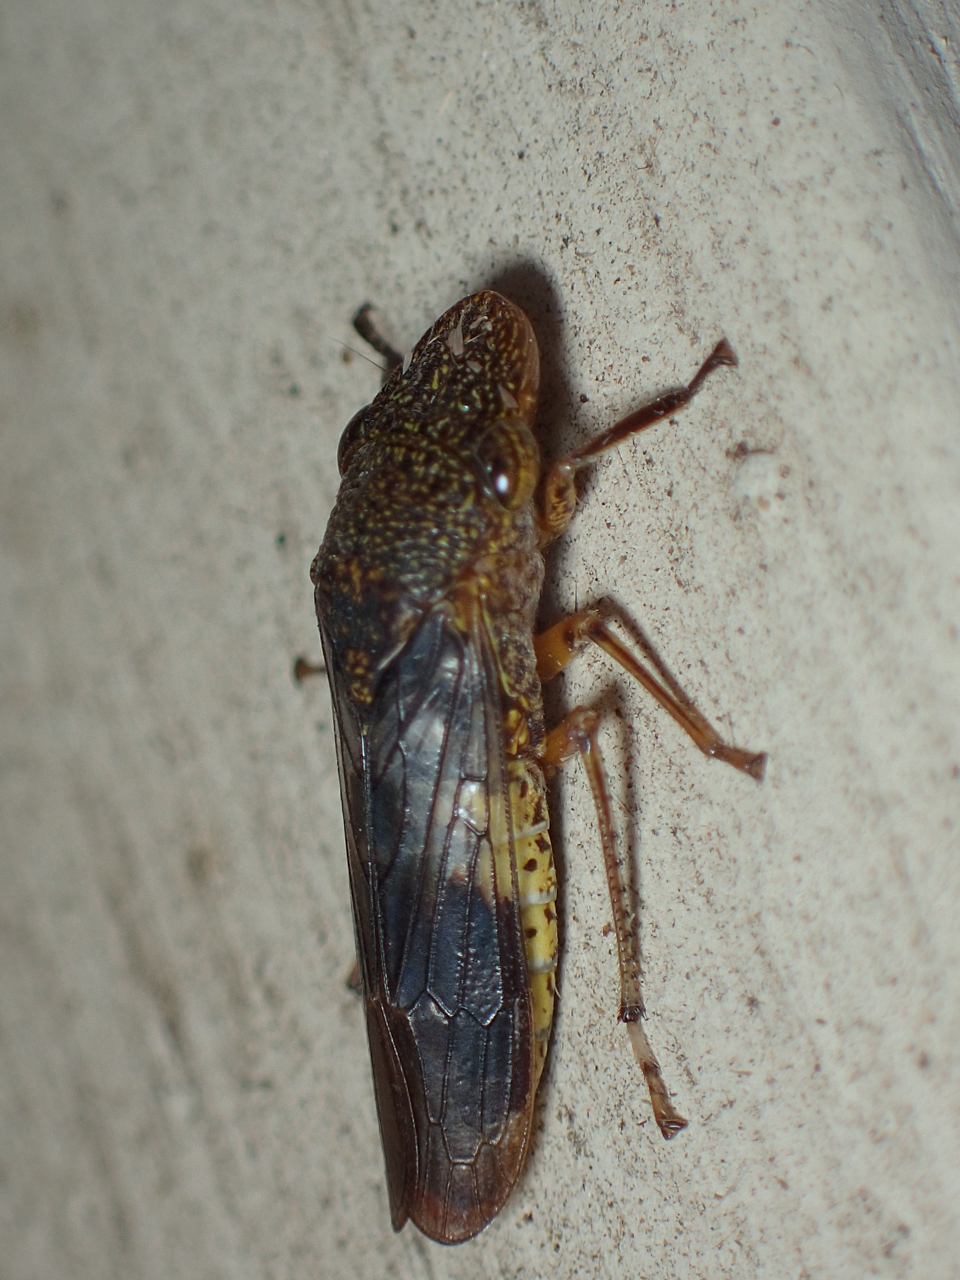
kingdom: Animalia
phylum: Arthropoda
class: Insecta
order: Hemiptera
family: Cicadellidae
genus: Homalodisca
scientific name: Homalodisca vitripennis
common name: Glassy-winged sharpshooter
